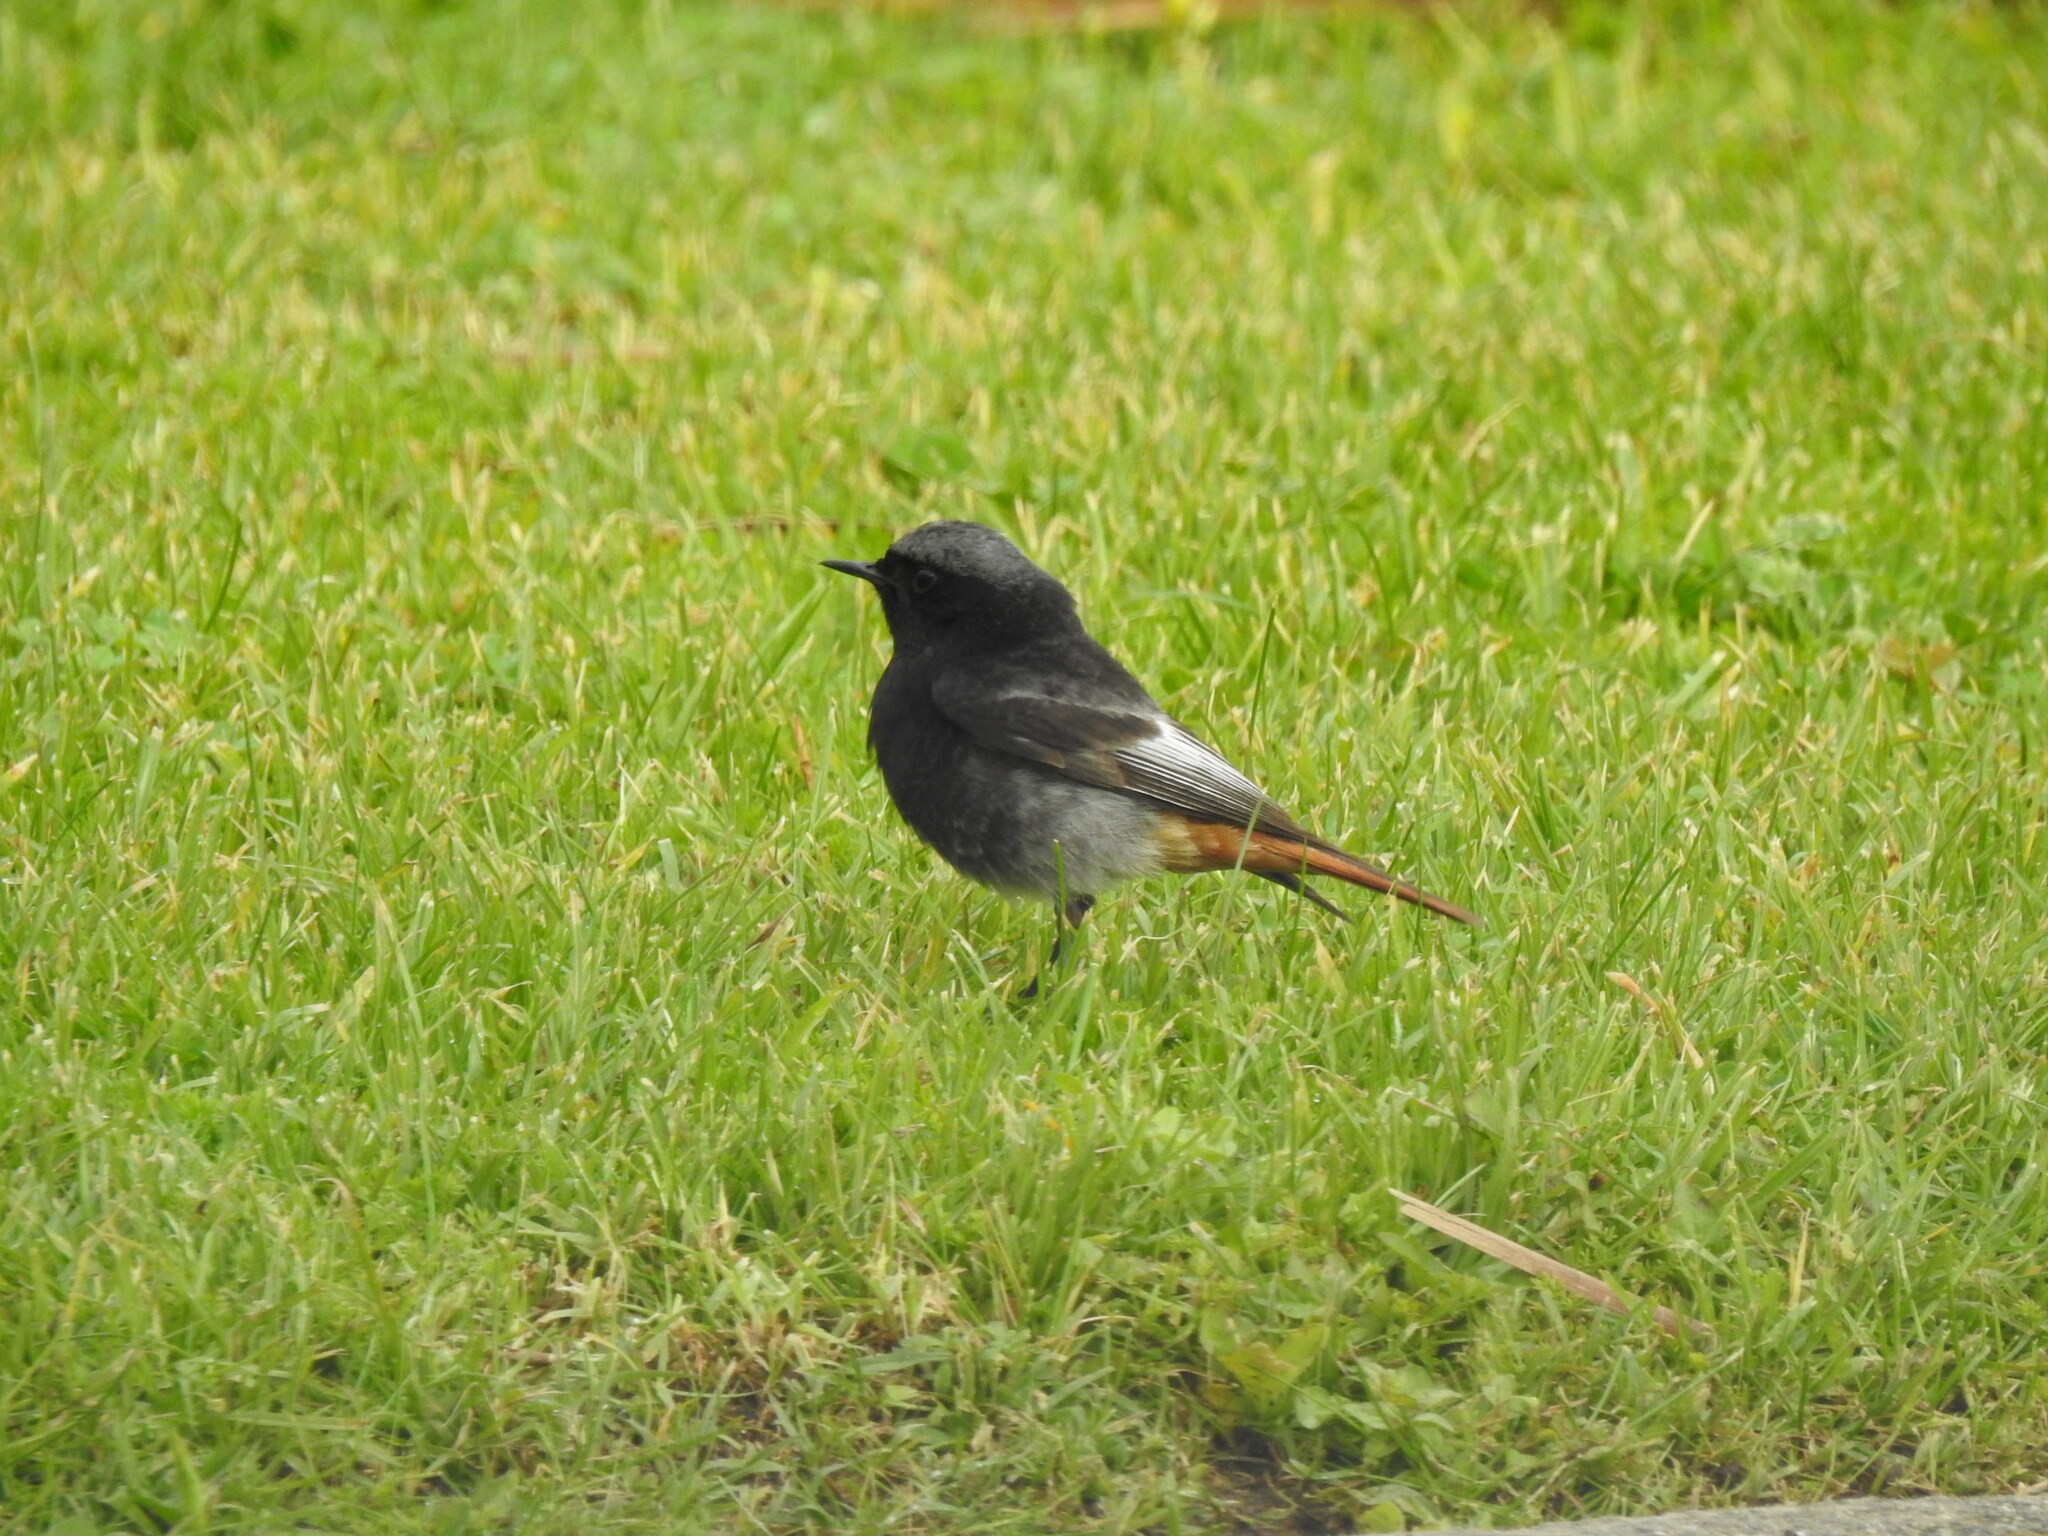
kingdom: Animalia
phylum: Chordata
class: Aves
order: Passeriformes
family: Muscicapidae
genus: Phoenicurus
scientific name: Phoenicurus ochruros
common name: Black redstart
